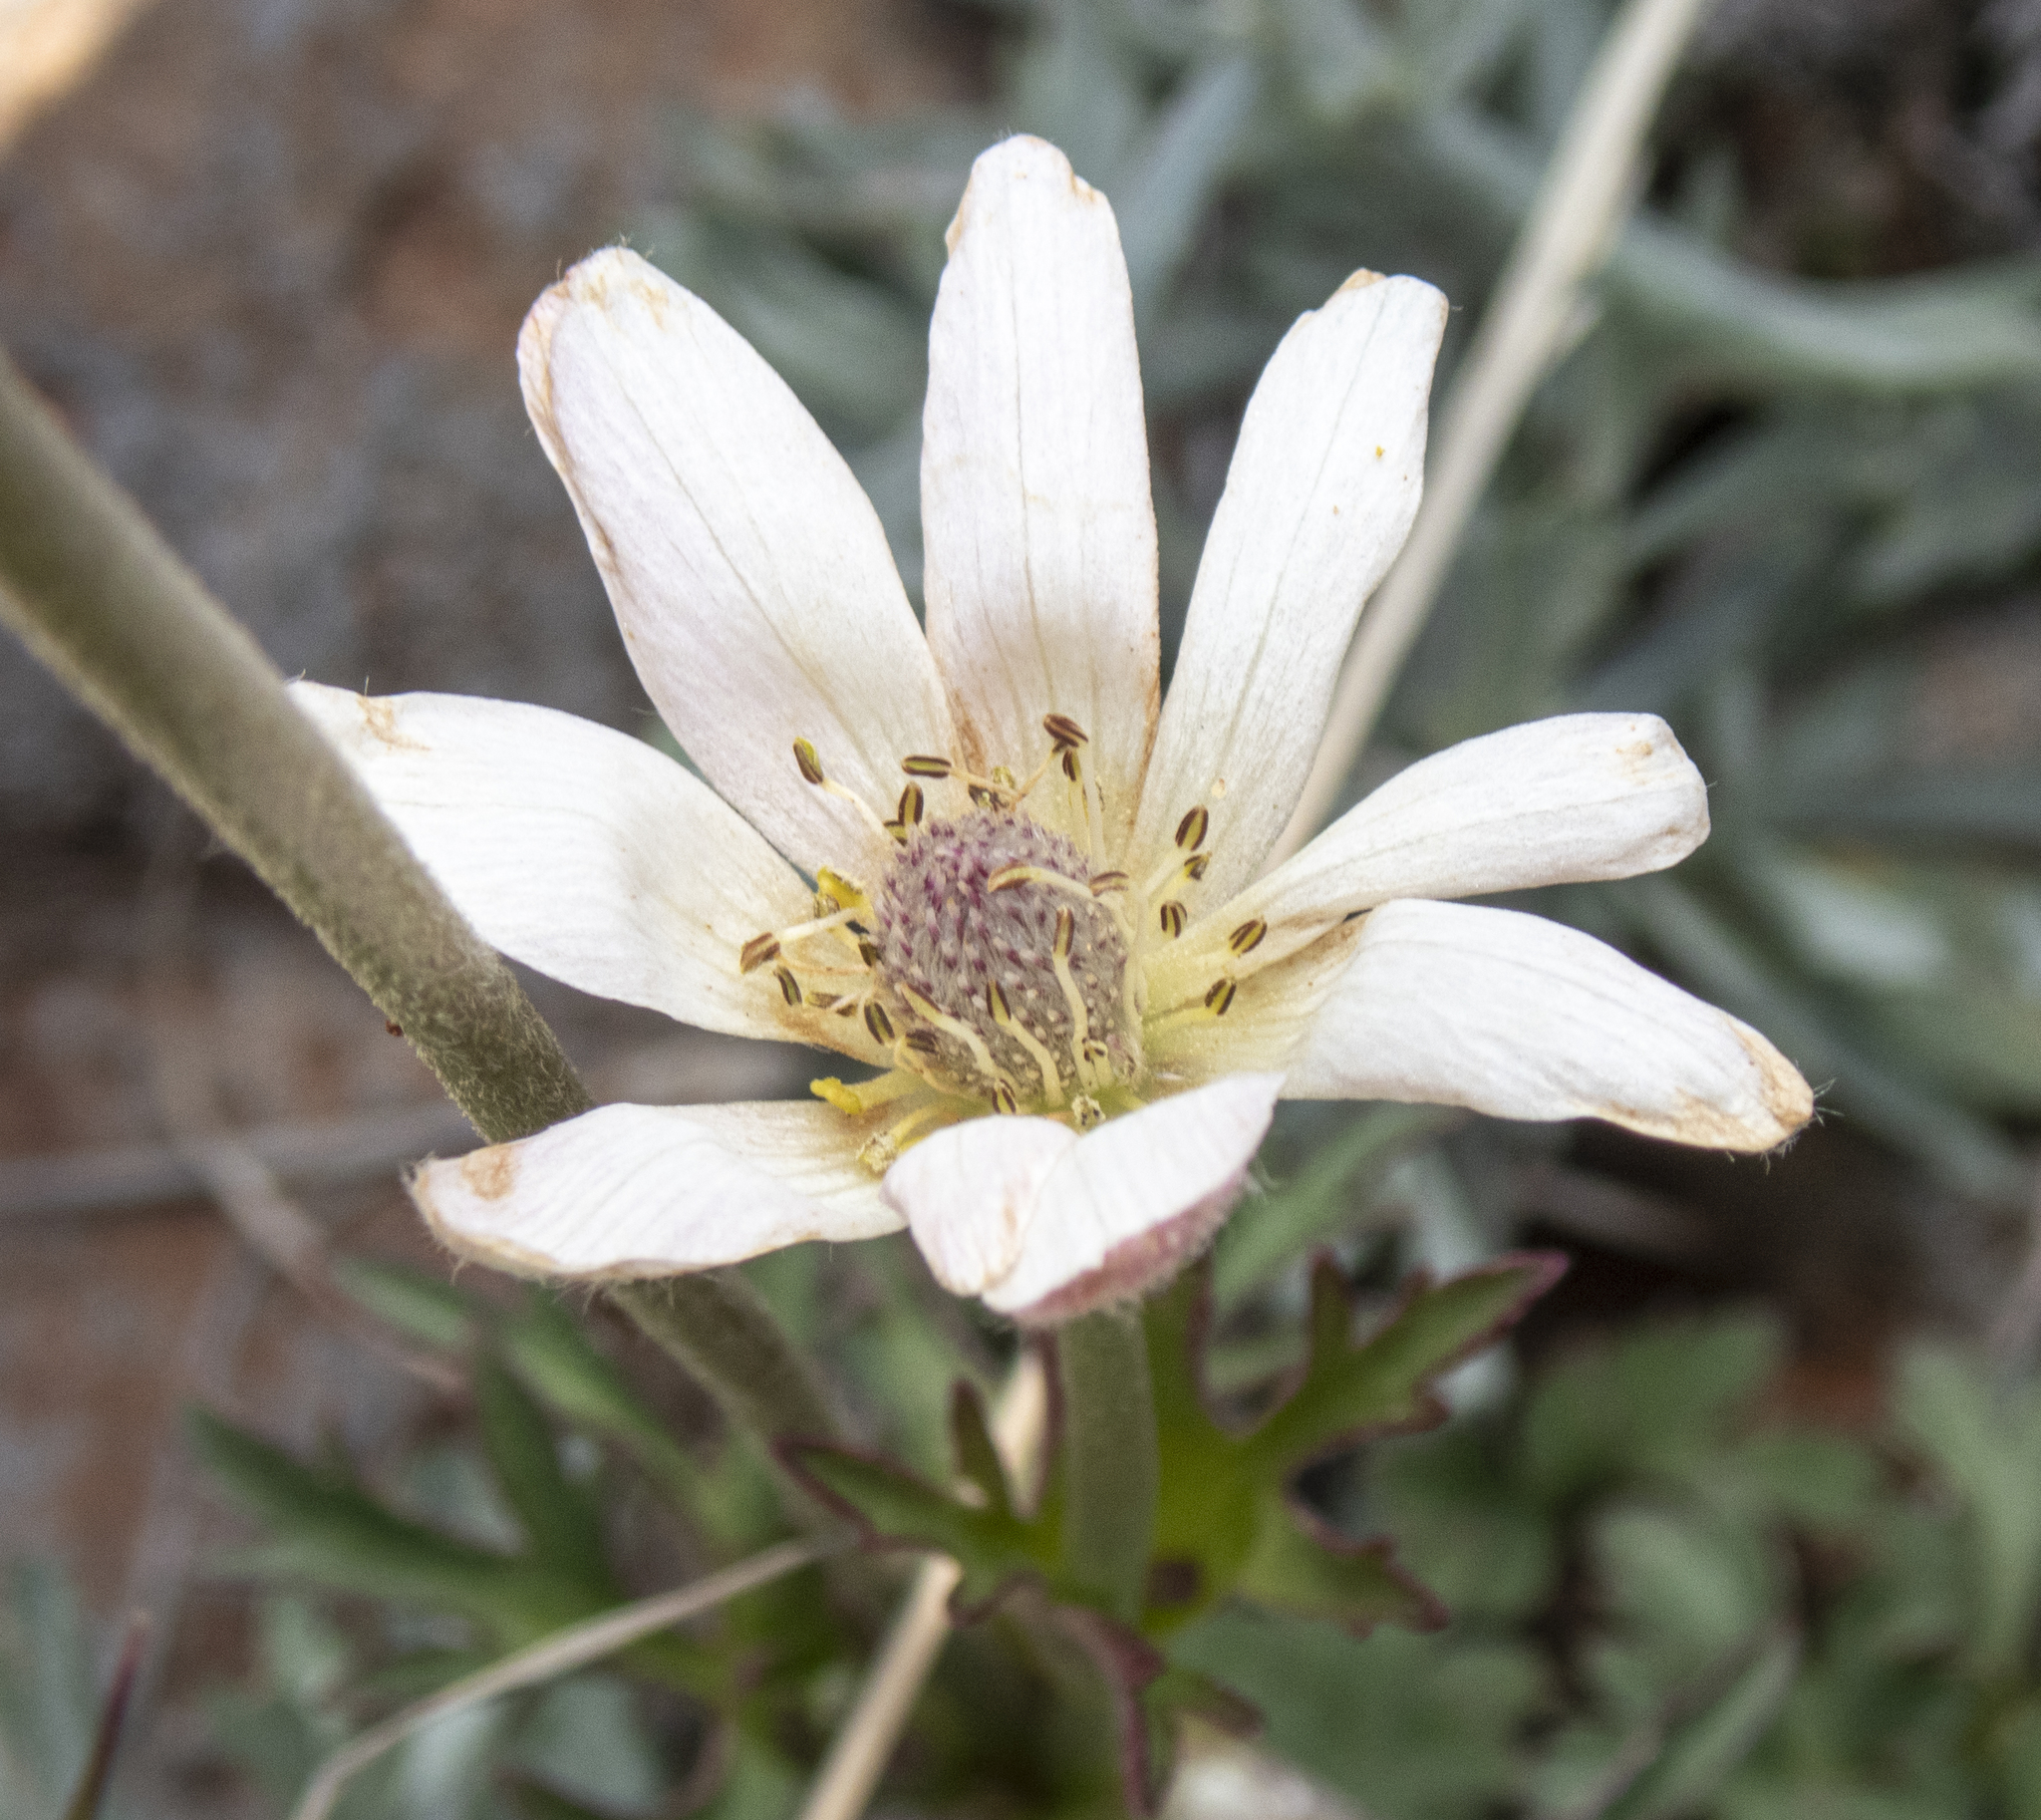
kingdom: Plantae
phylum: Tracheophyta
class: Magnoliopsida
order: Ranunculales
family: Ranunculaceae
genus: Anemone
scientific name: Anemone tuberosa
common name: Desert anemone
